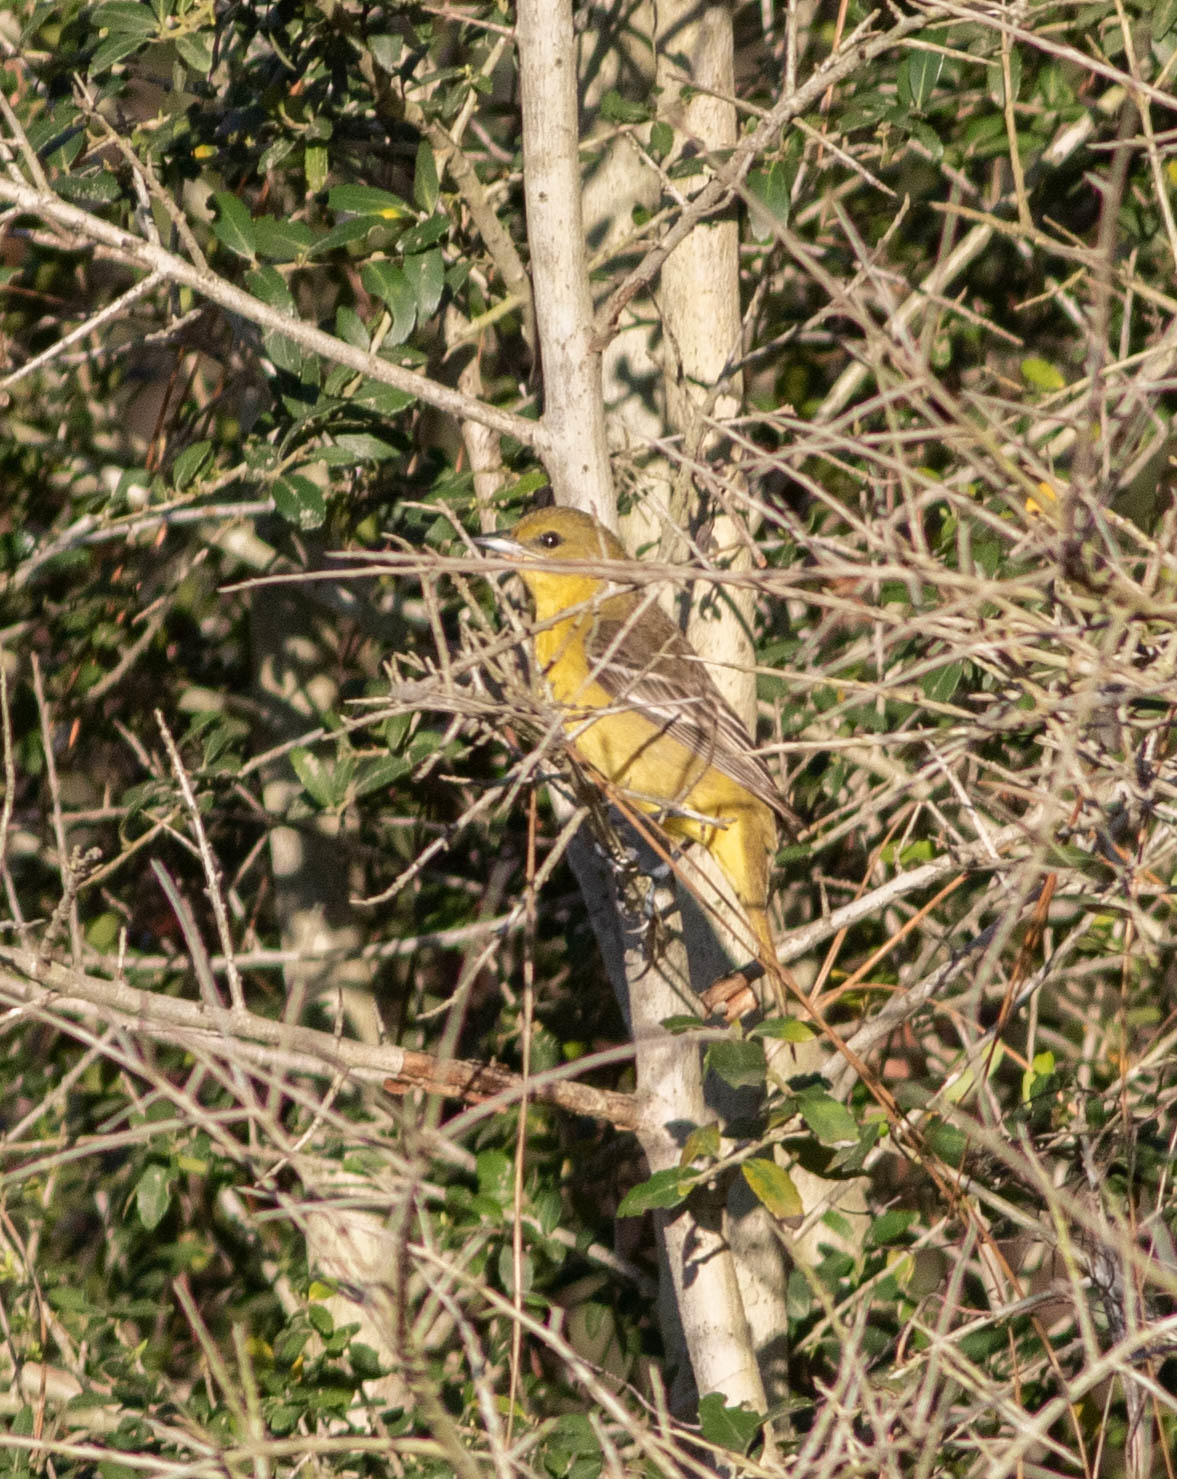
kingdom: Animalia
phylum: Chordata
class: Aves
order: Passeriformes
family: Icteridae
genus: Icterus
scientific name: Icterus spurius
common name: Orchard oriole
